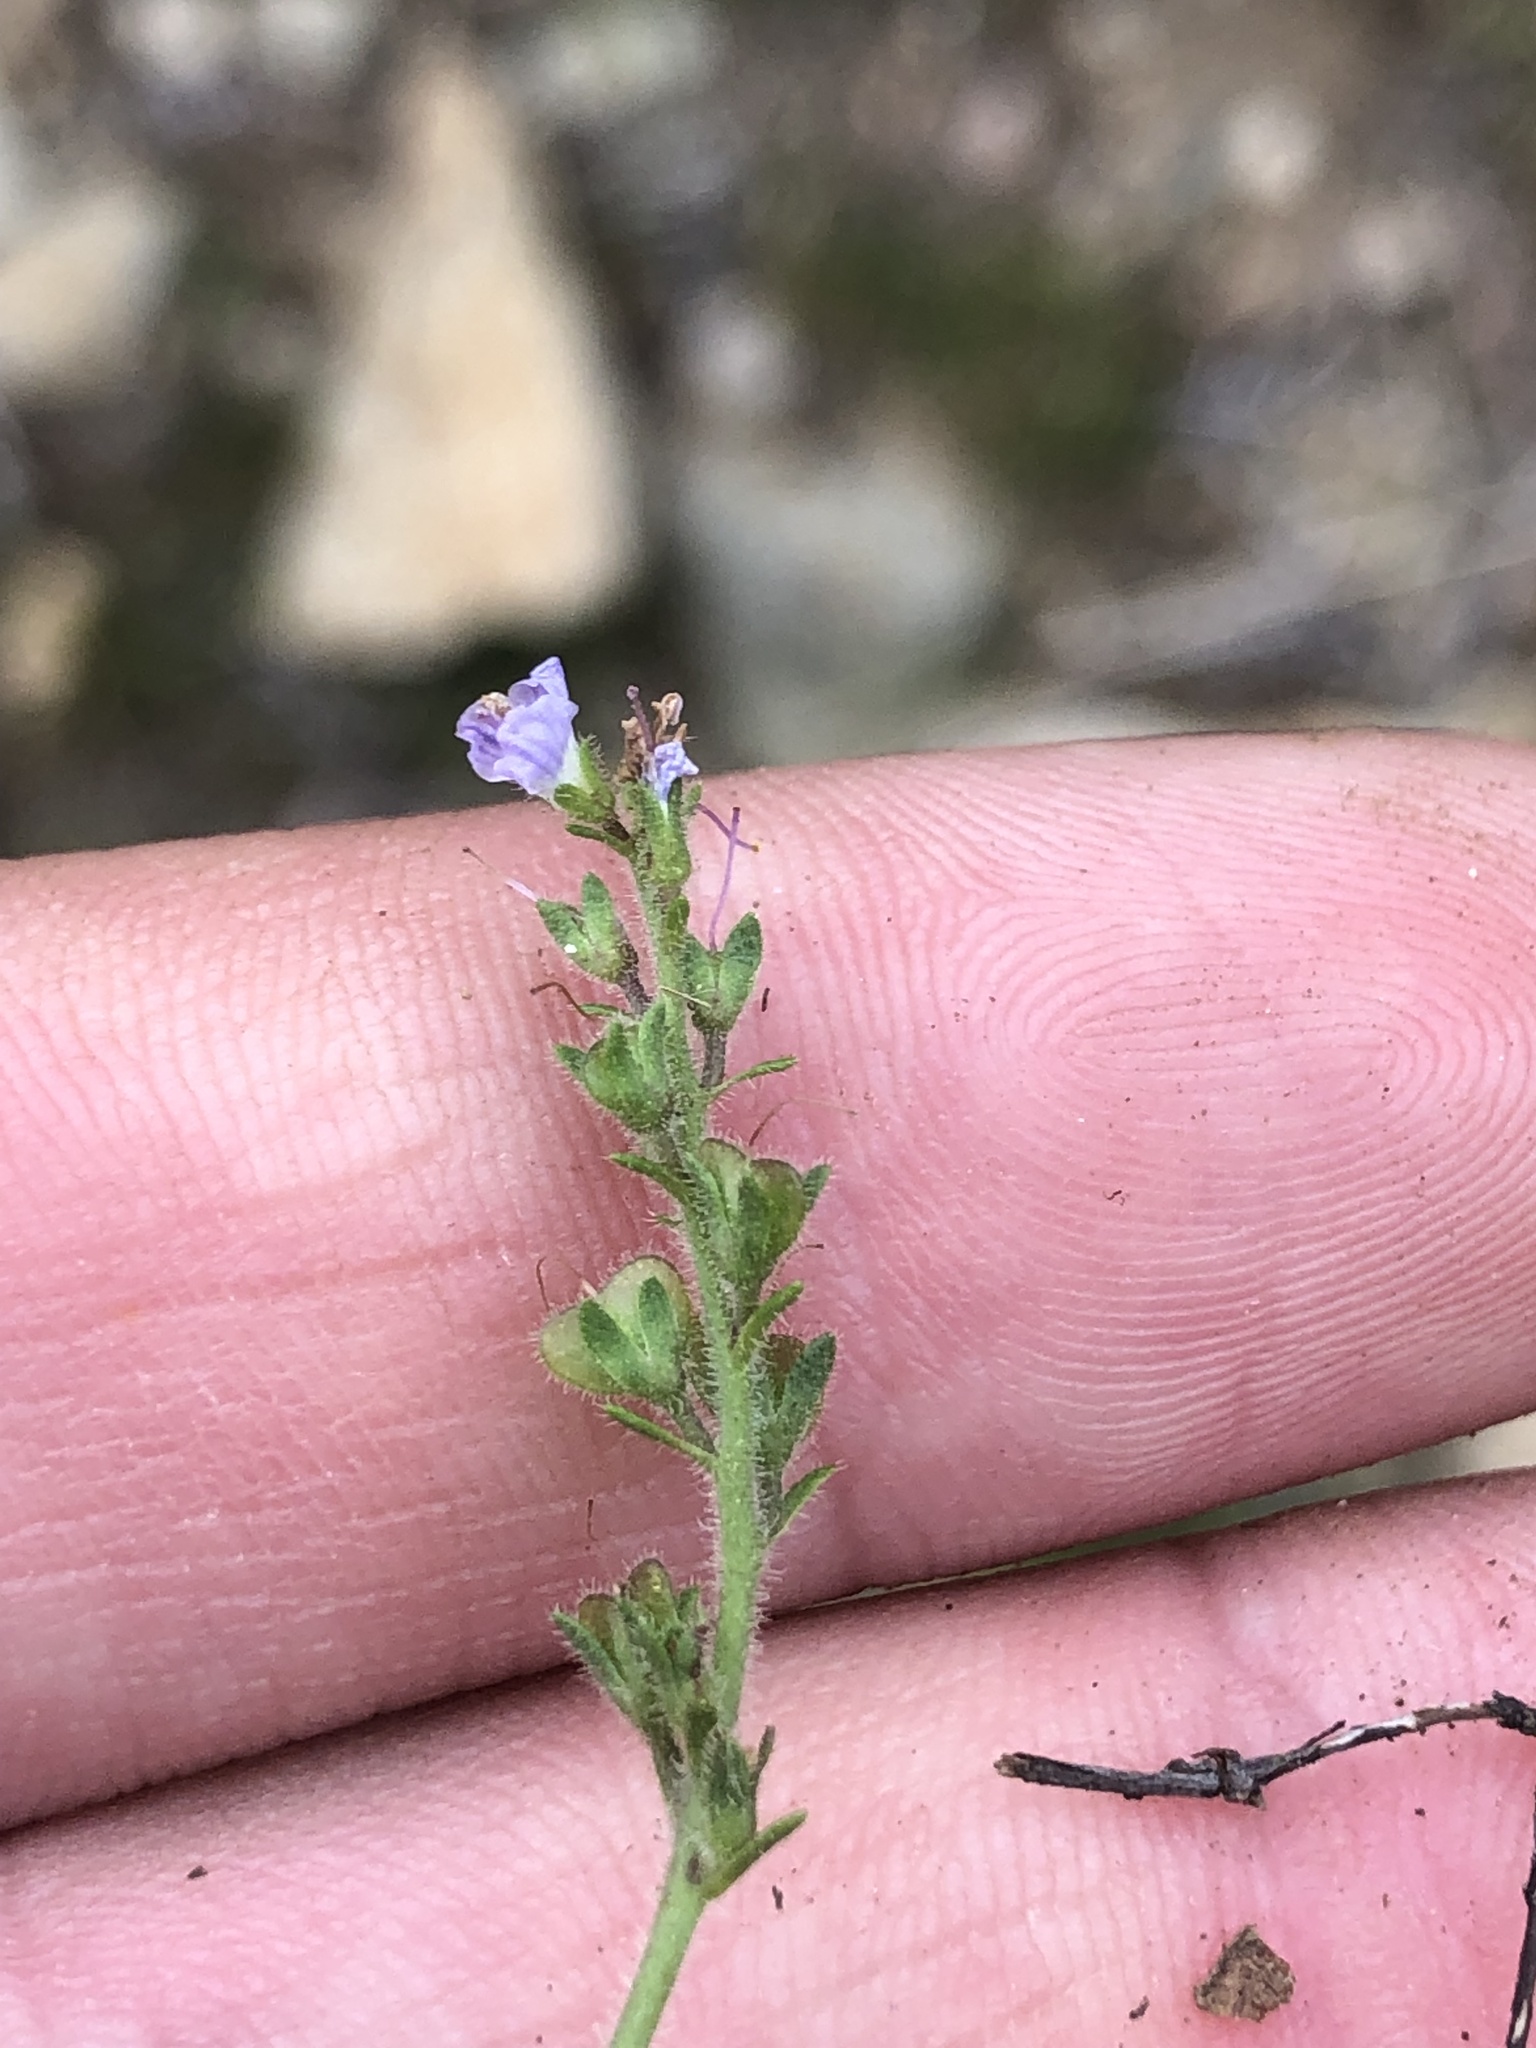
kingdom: Plantae
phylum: Tracheophyta
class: Magnoliopsida
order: Lamiales
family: Plantaginaceae
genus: Veronica
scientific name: Veronica officinalis
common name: Common speedwell
